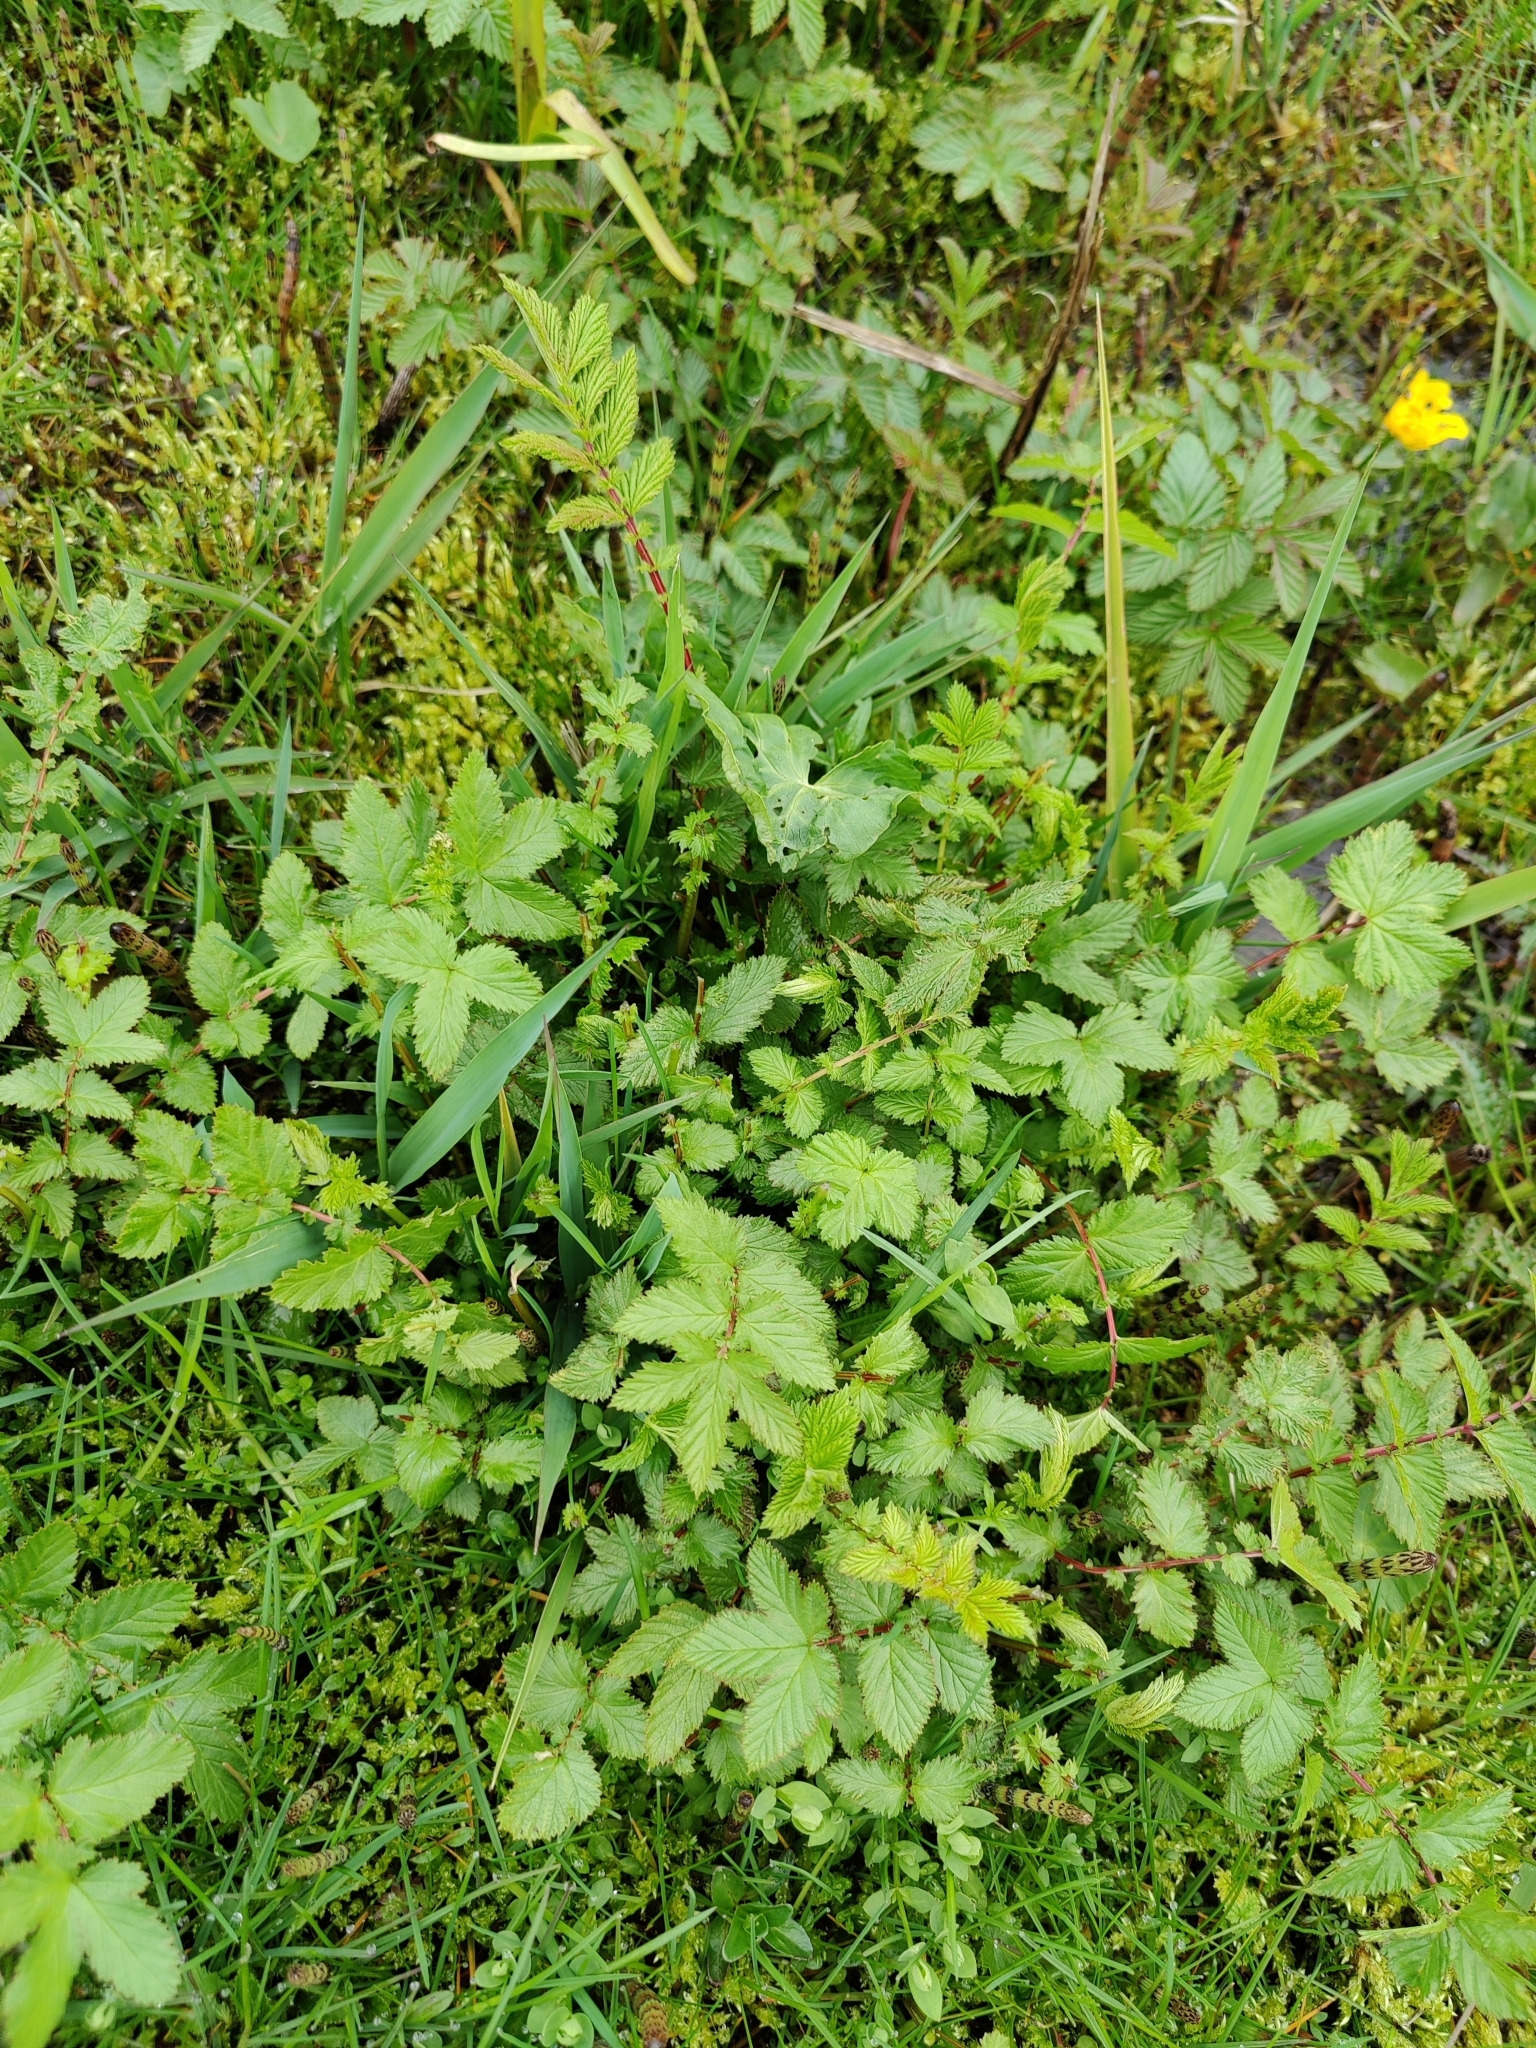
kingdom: Plantae
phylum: Tracheophyta
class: Magnoliopsida
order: Rosales
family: Rosaceae
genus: Filipendula
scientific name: Filipendula ulmaria
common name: Meadowsweet
